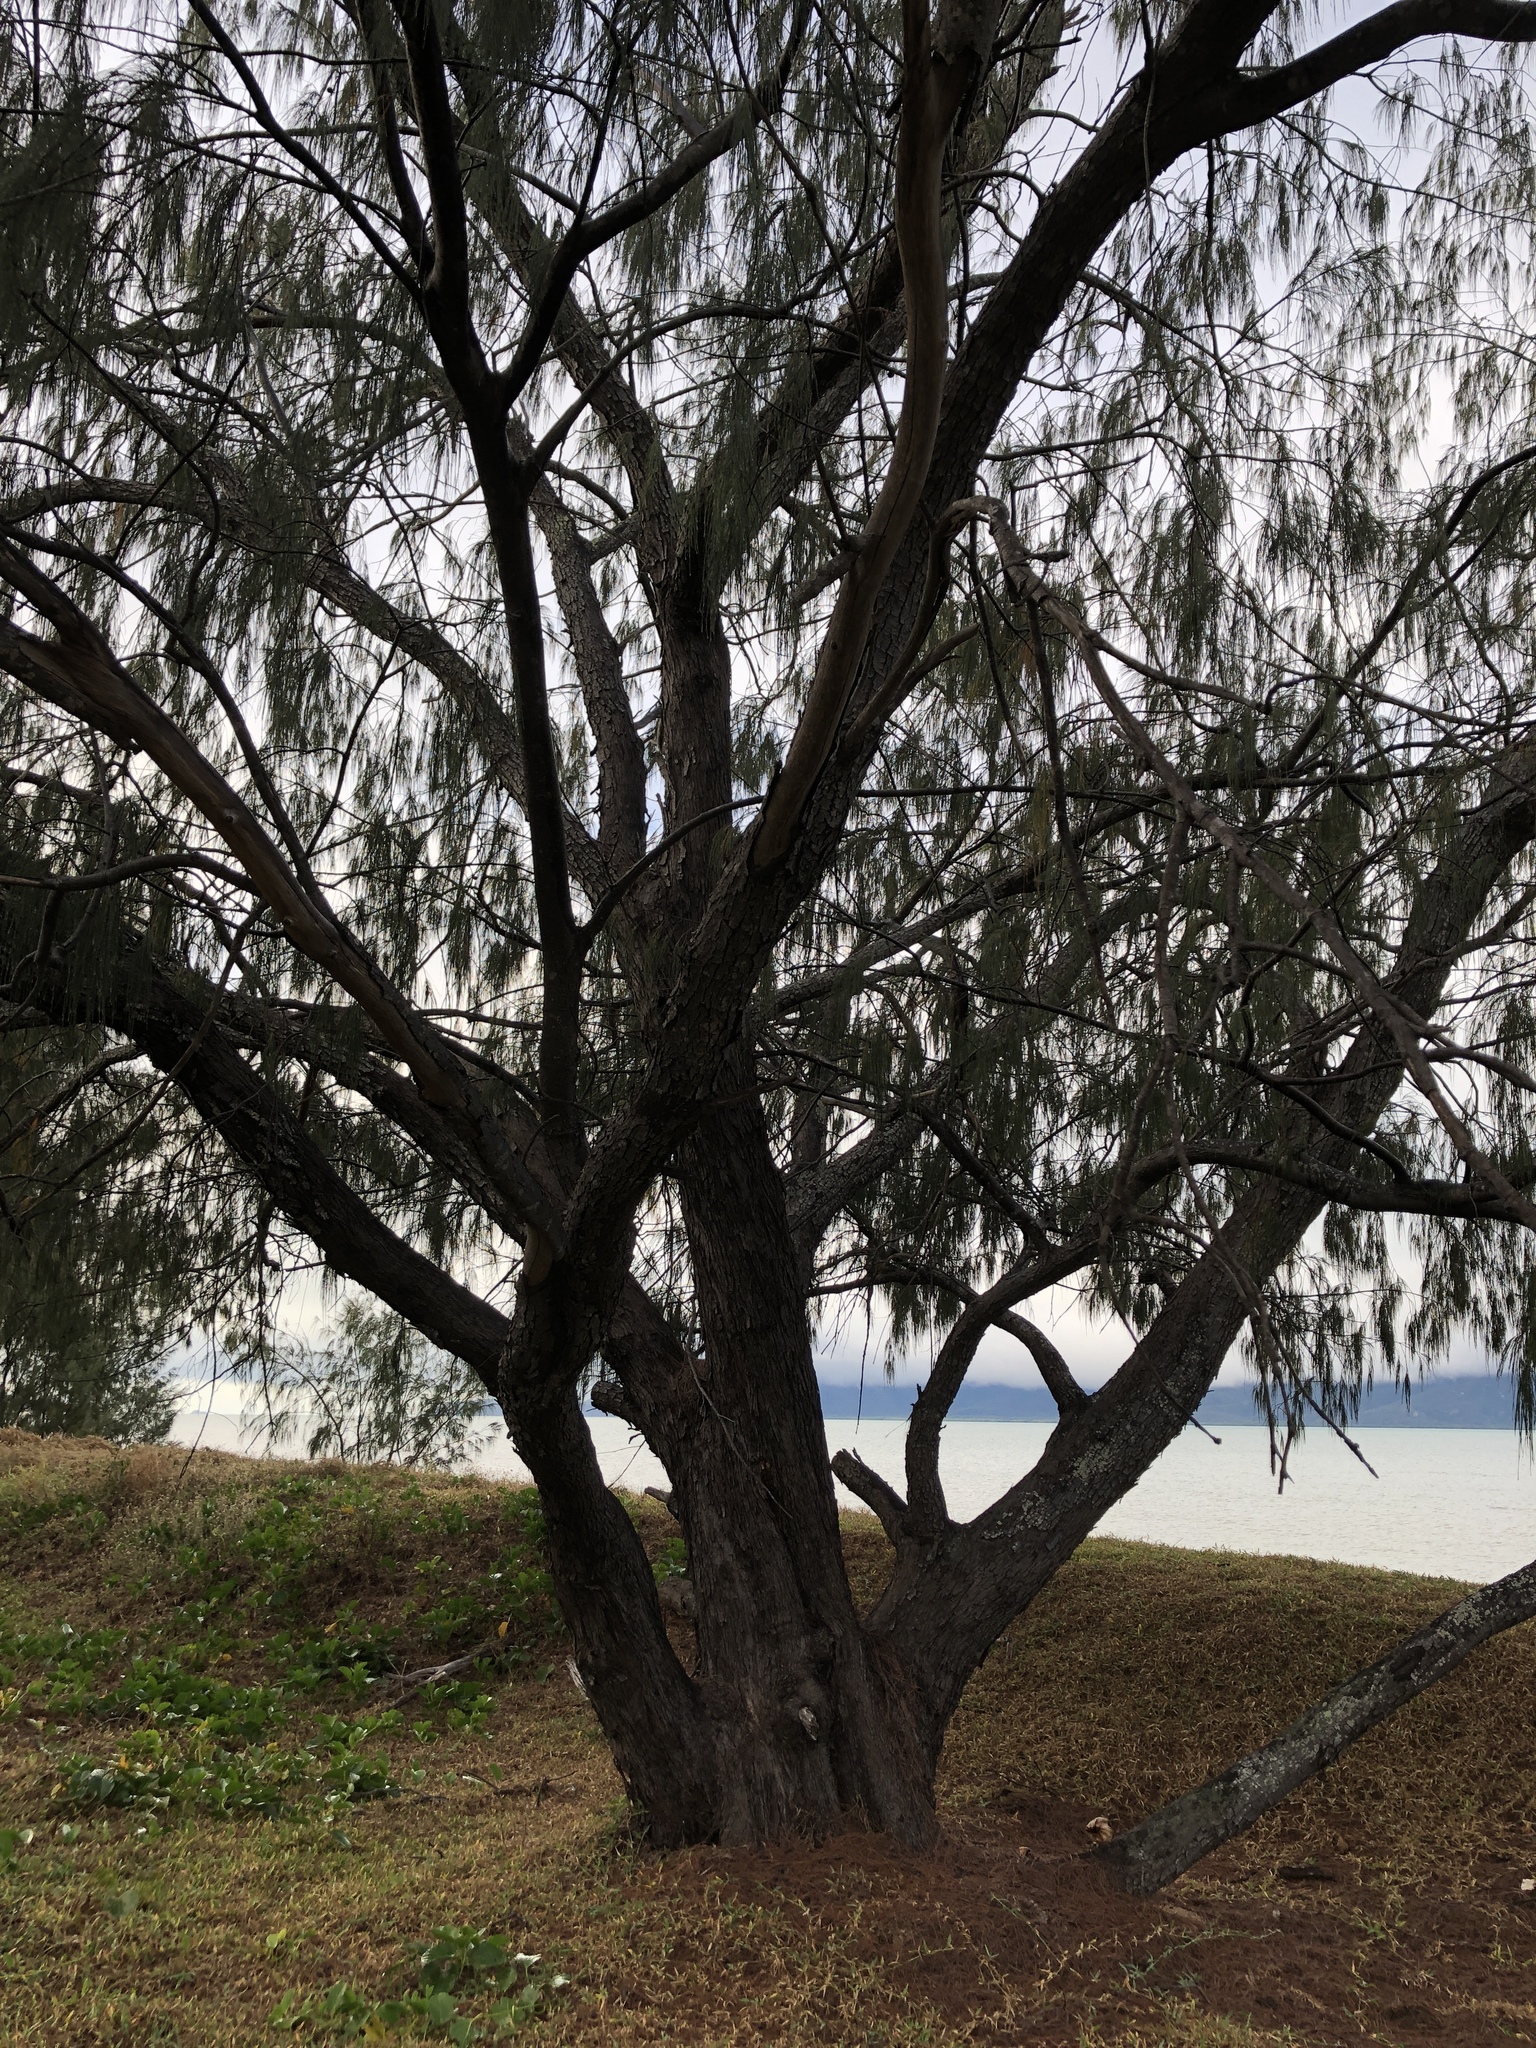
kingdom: Plantae
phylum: Tracheophyta
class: Magnoliopsida
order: Fagales
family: Casuarinaceae
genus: Casuarina
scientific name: Casuarina equisetifolia
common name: Beach sheoak
